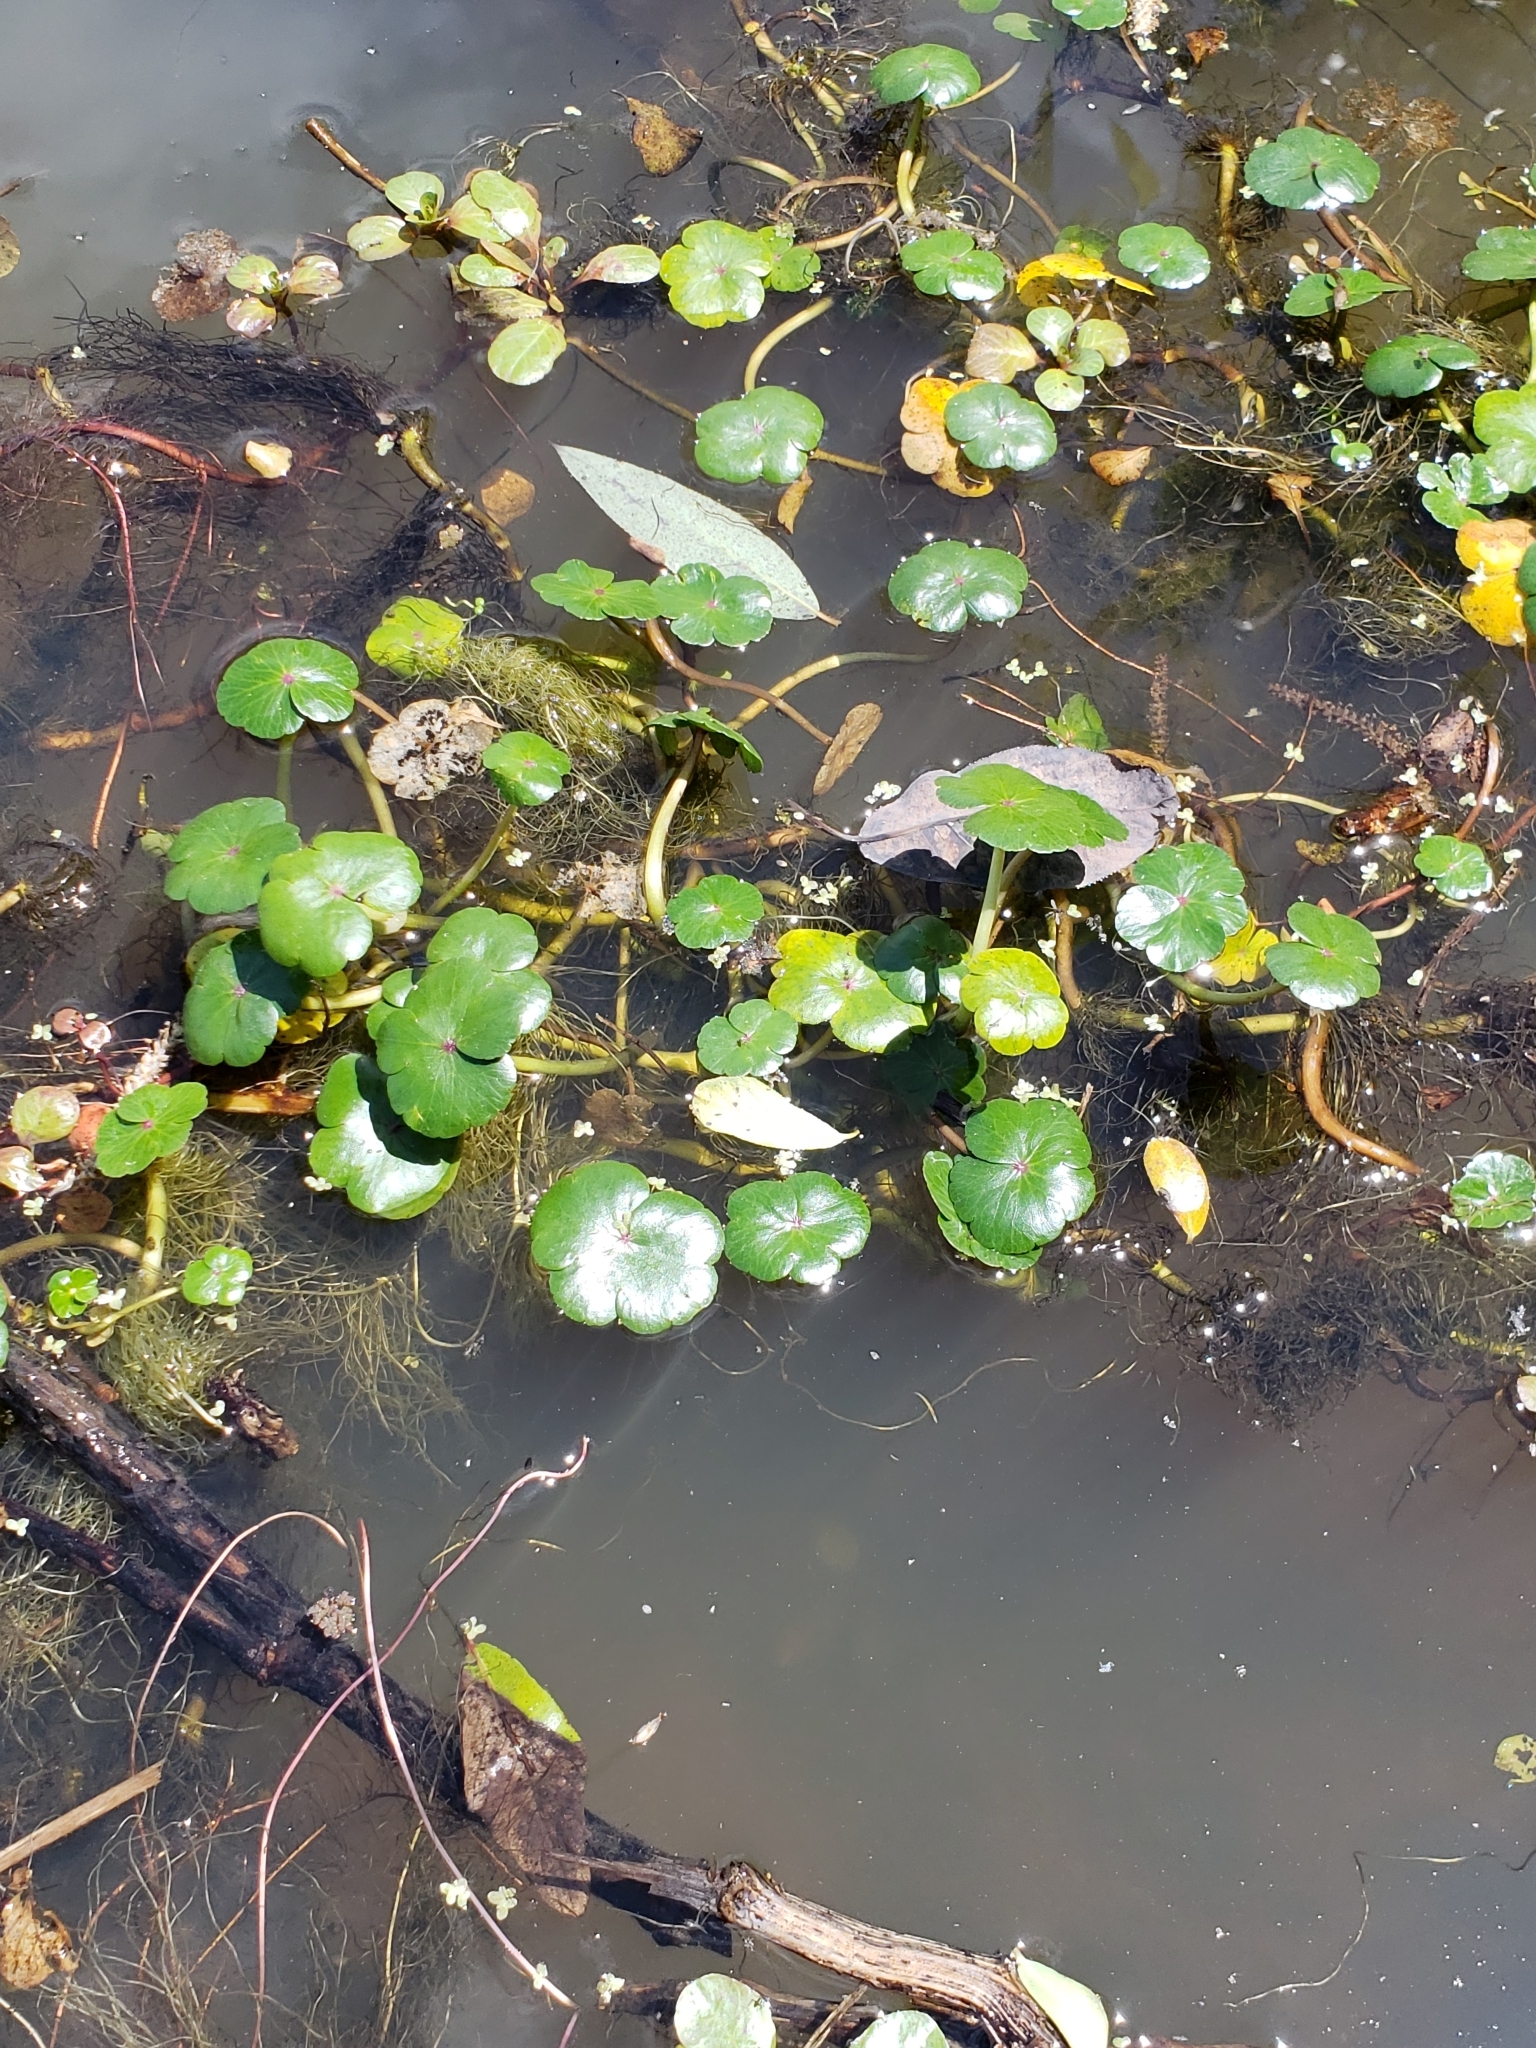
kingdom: Plantae
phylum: Tracheophyta
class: Magnoliopsida
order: Apiales
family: Araliaceae
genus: Hydrocotyle
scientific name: Hydrocotyle ranunculoides
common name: Floating pennywort
